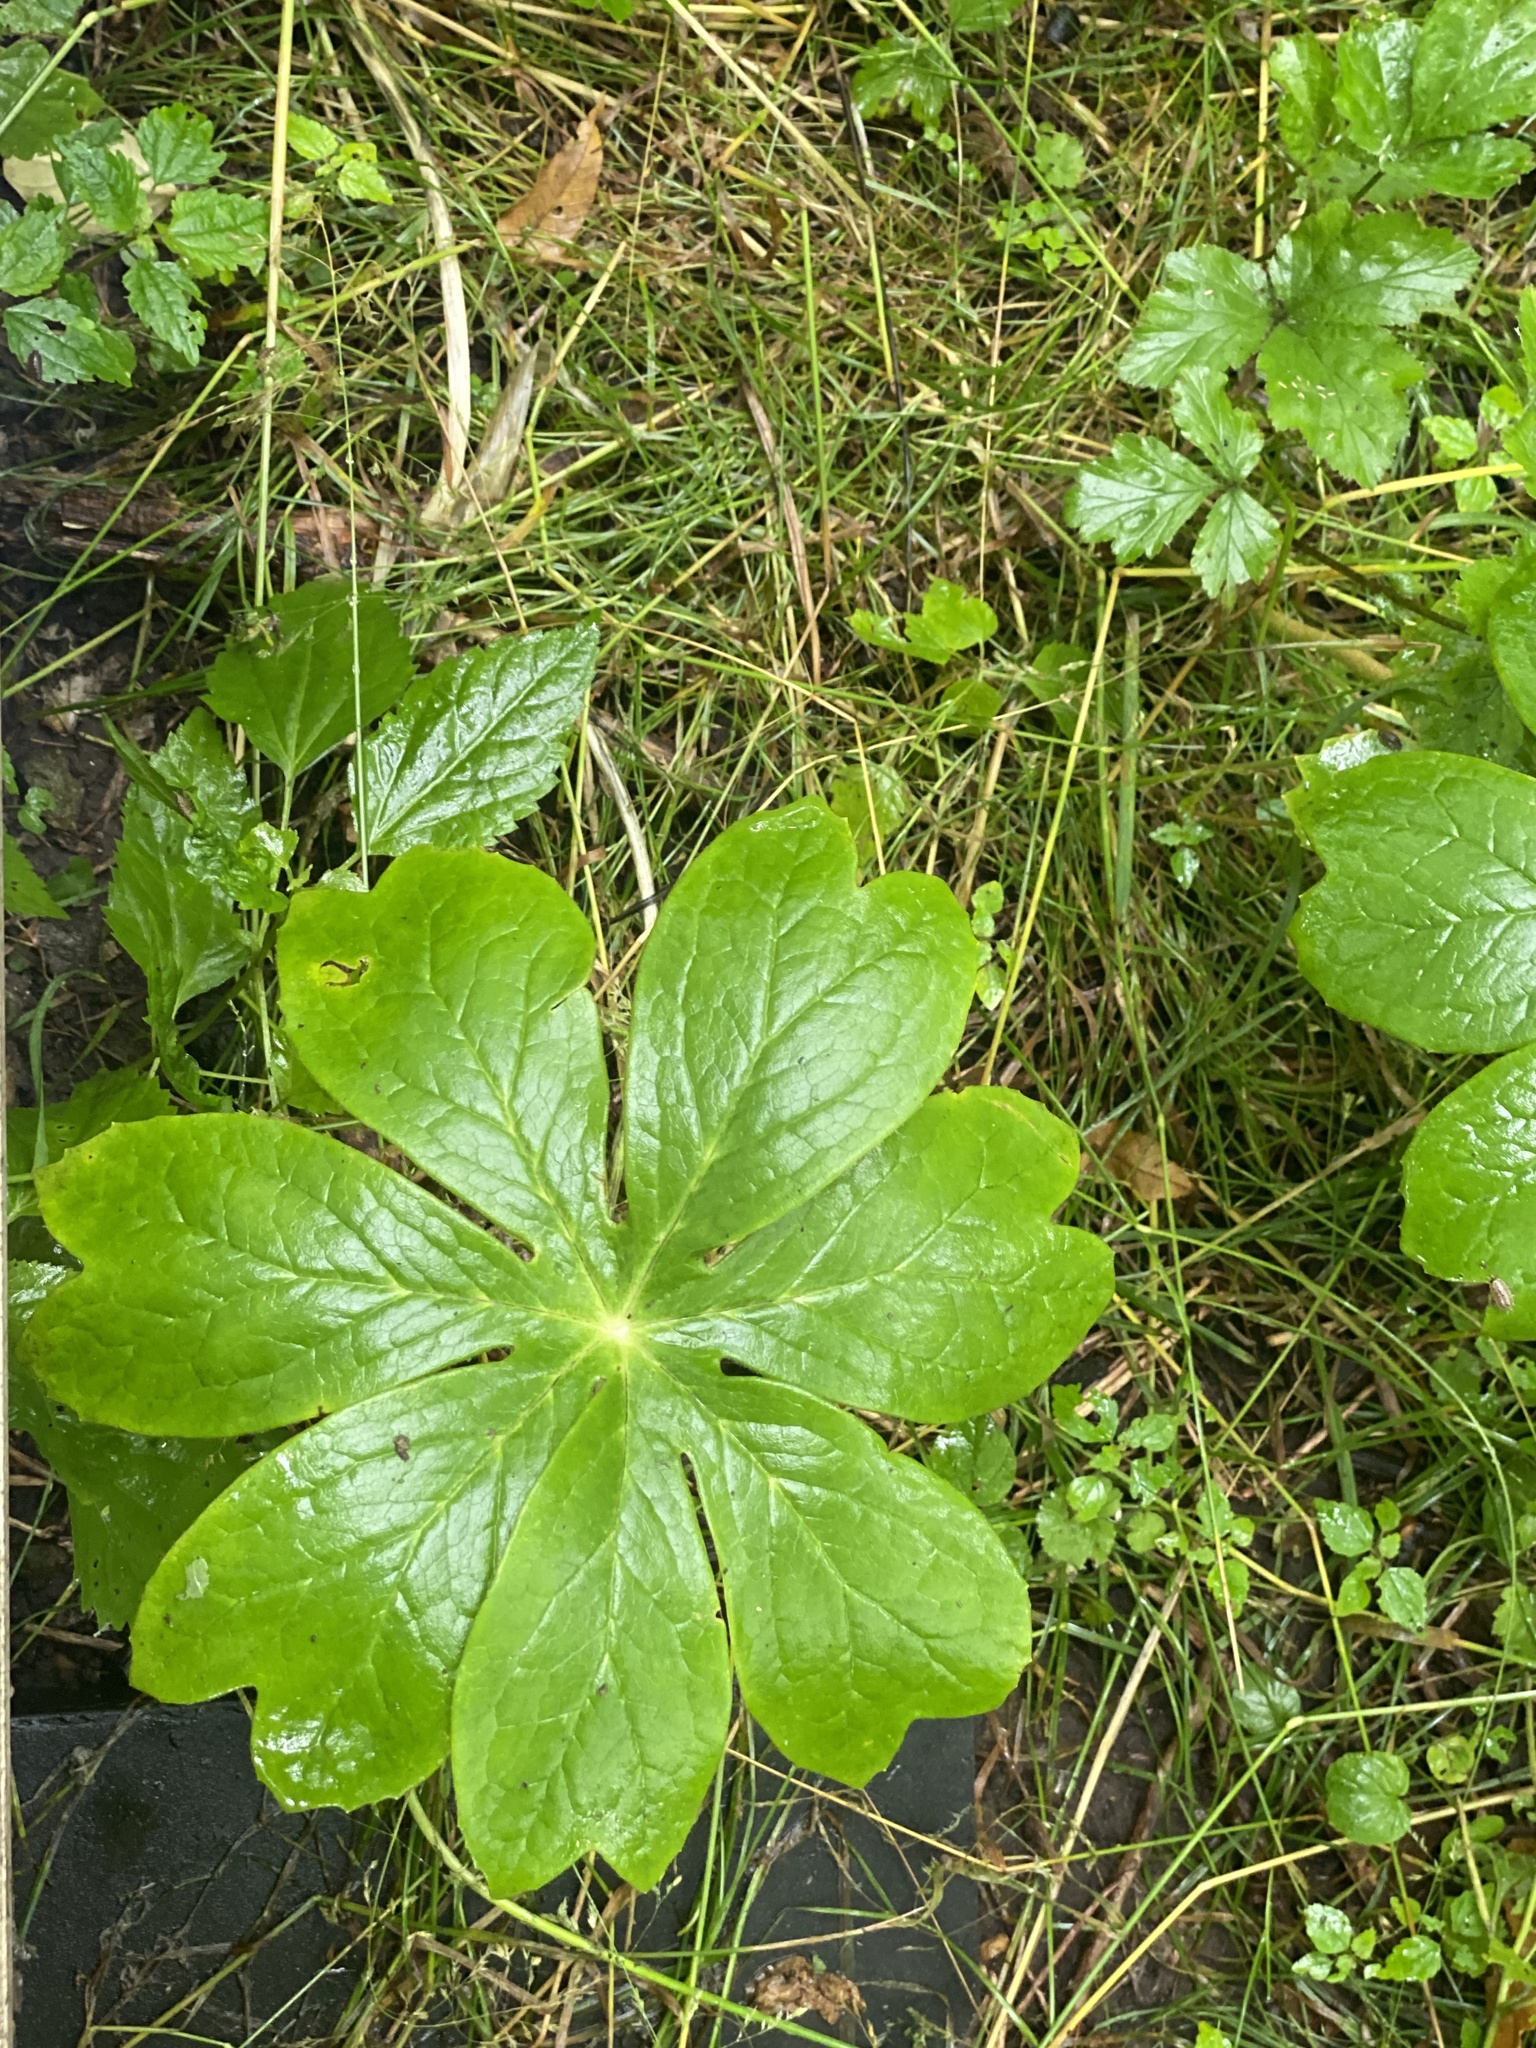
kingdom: Plantae
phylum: Tracheophyta
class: Magnoliopsida
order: Ranunculales
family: Berberidaceae
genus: Podophyllum
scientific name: Podophyllum peltatum
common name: Wild mandrake
